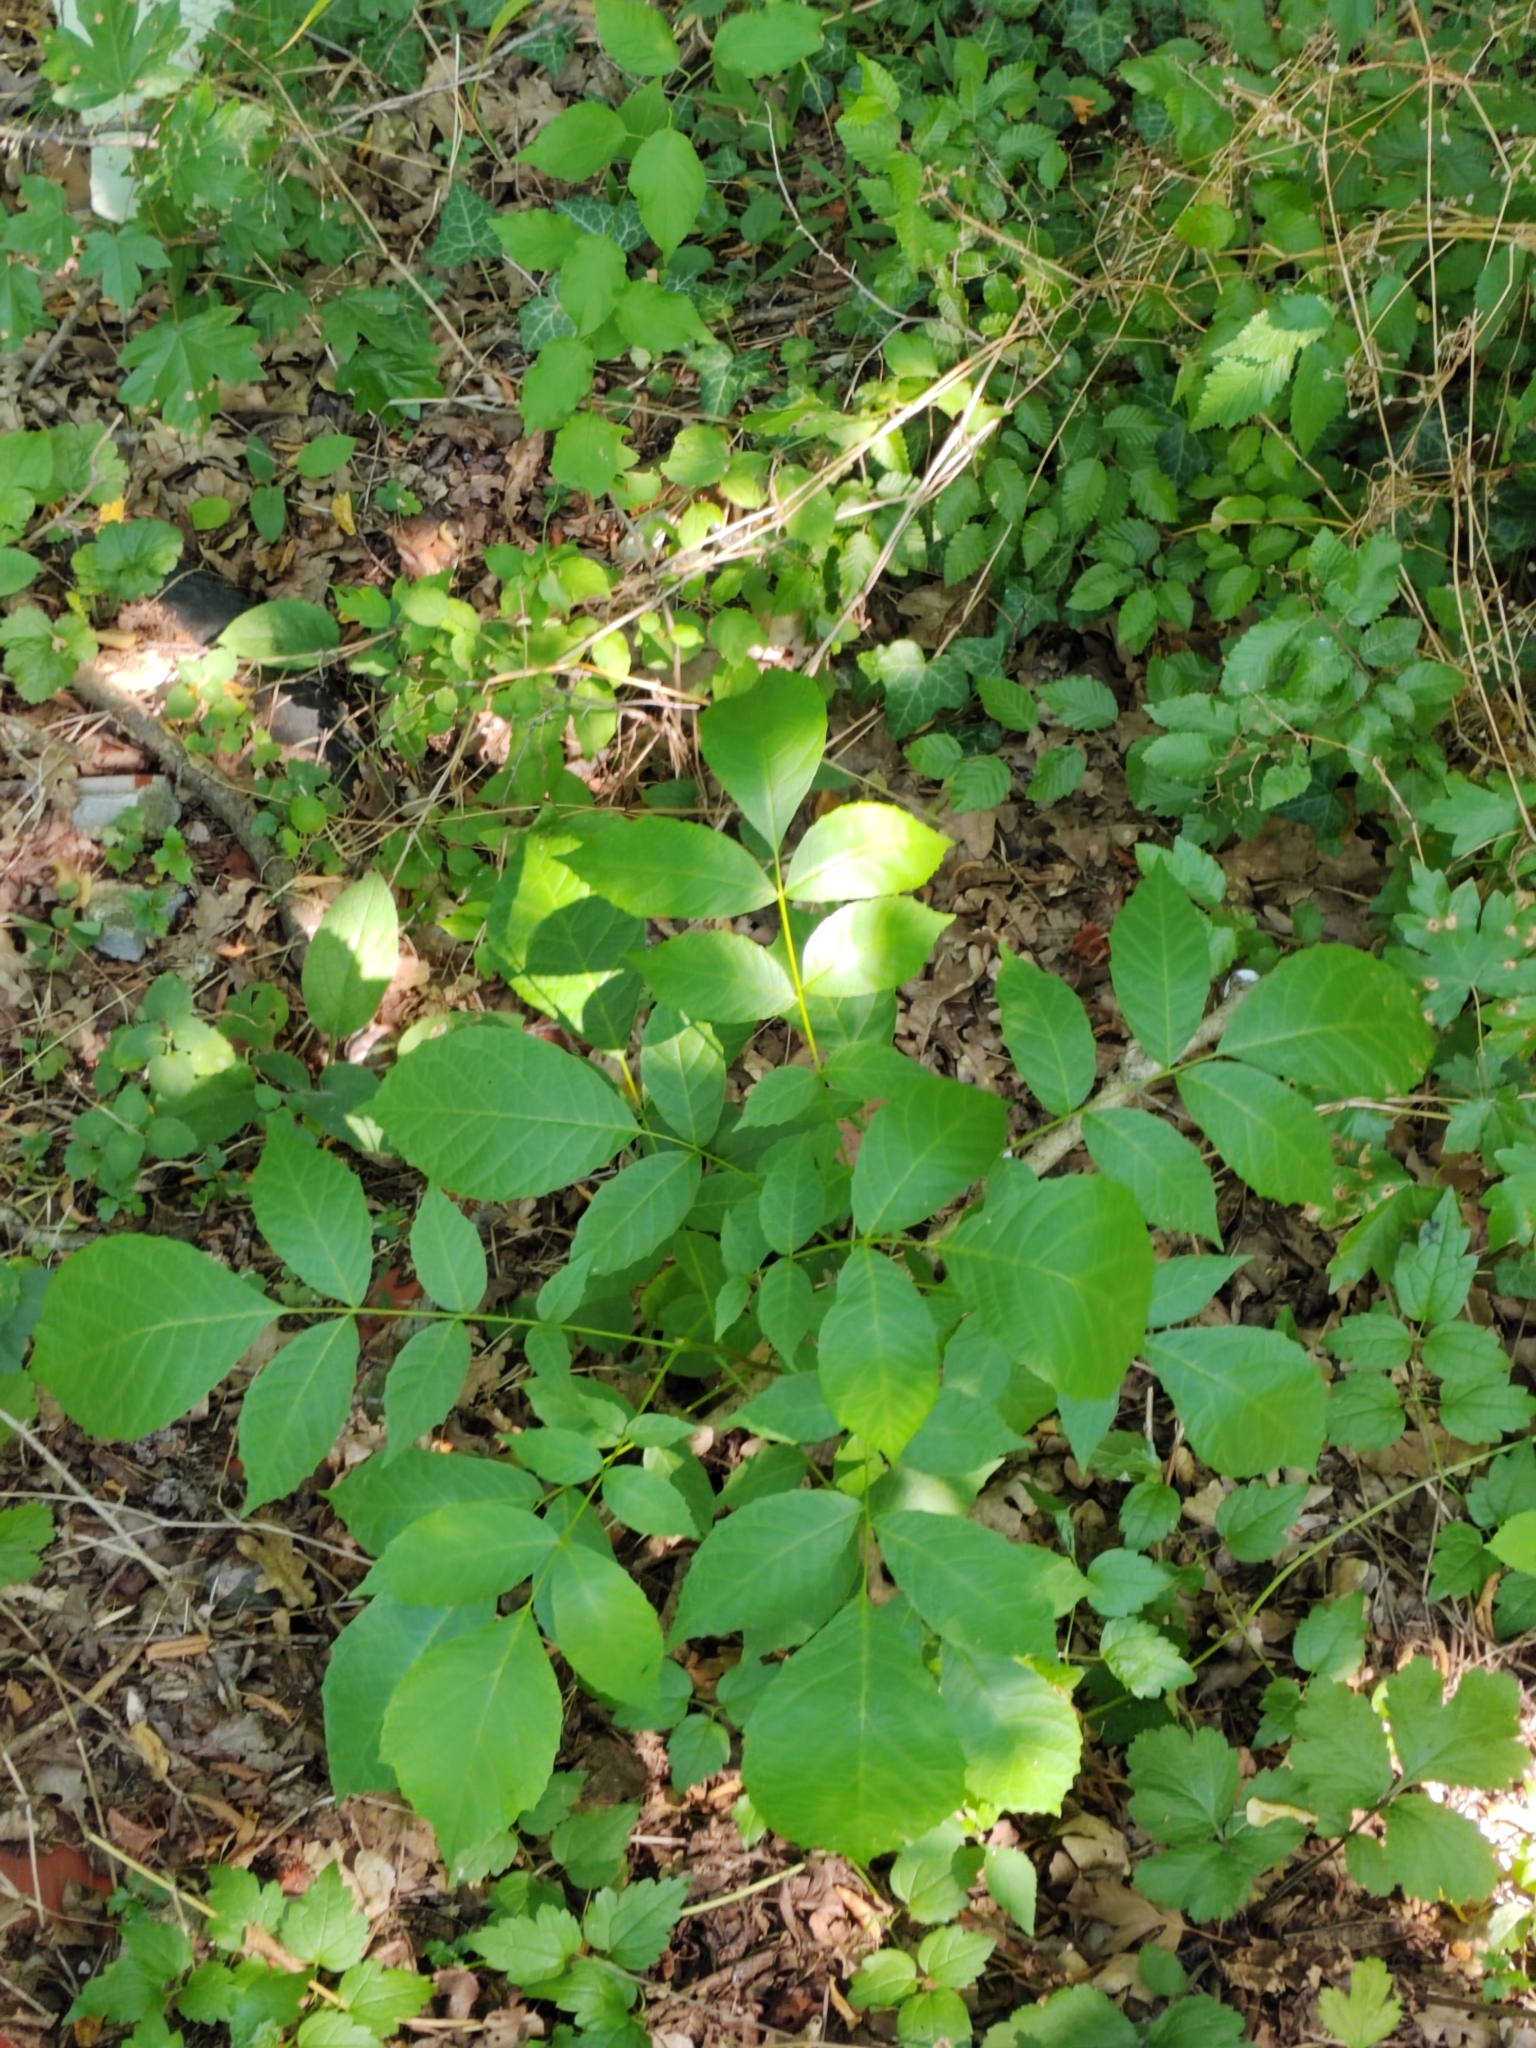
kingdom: Plantae
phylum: Tracheophyta
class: Magnoliopsida
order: Fagales
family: Juglandaceae
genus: Juglans
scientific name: Juglans regia
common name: Walnut
